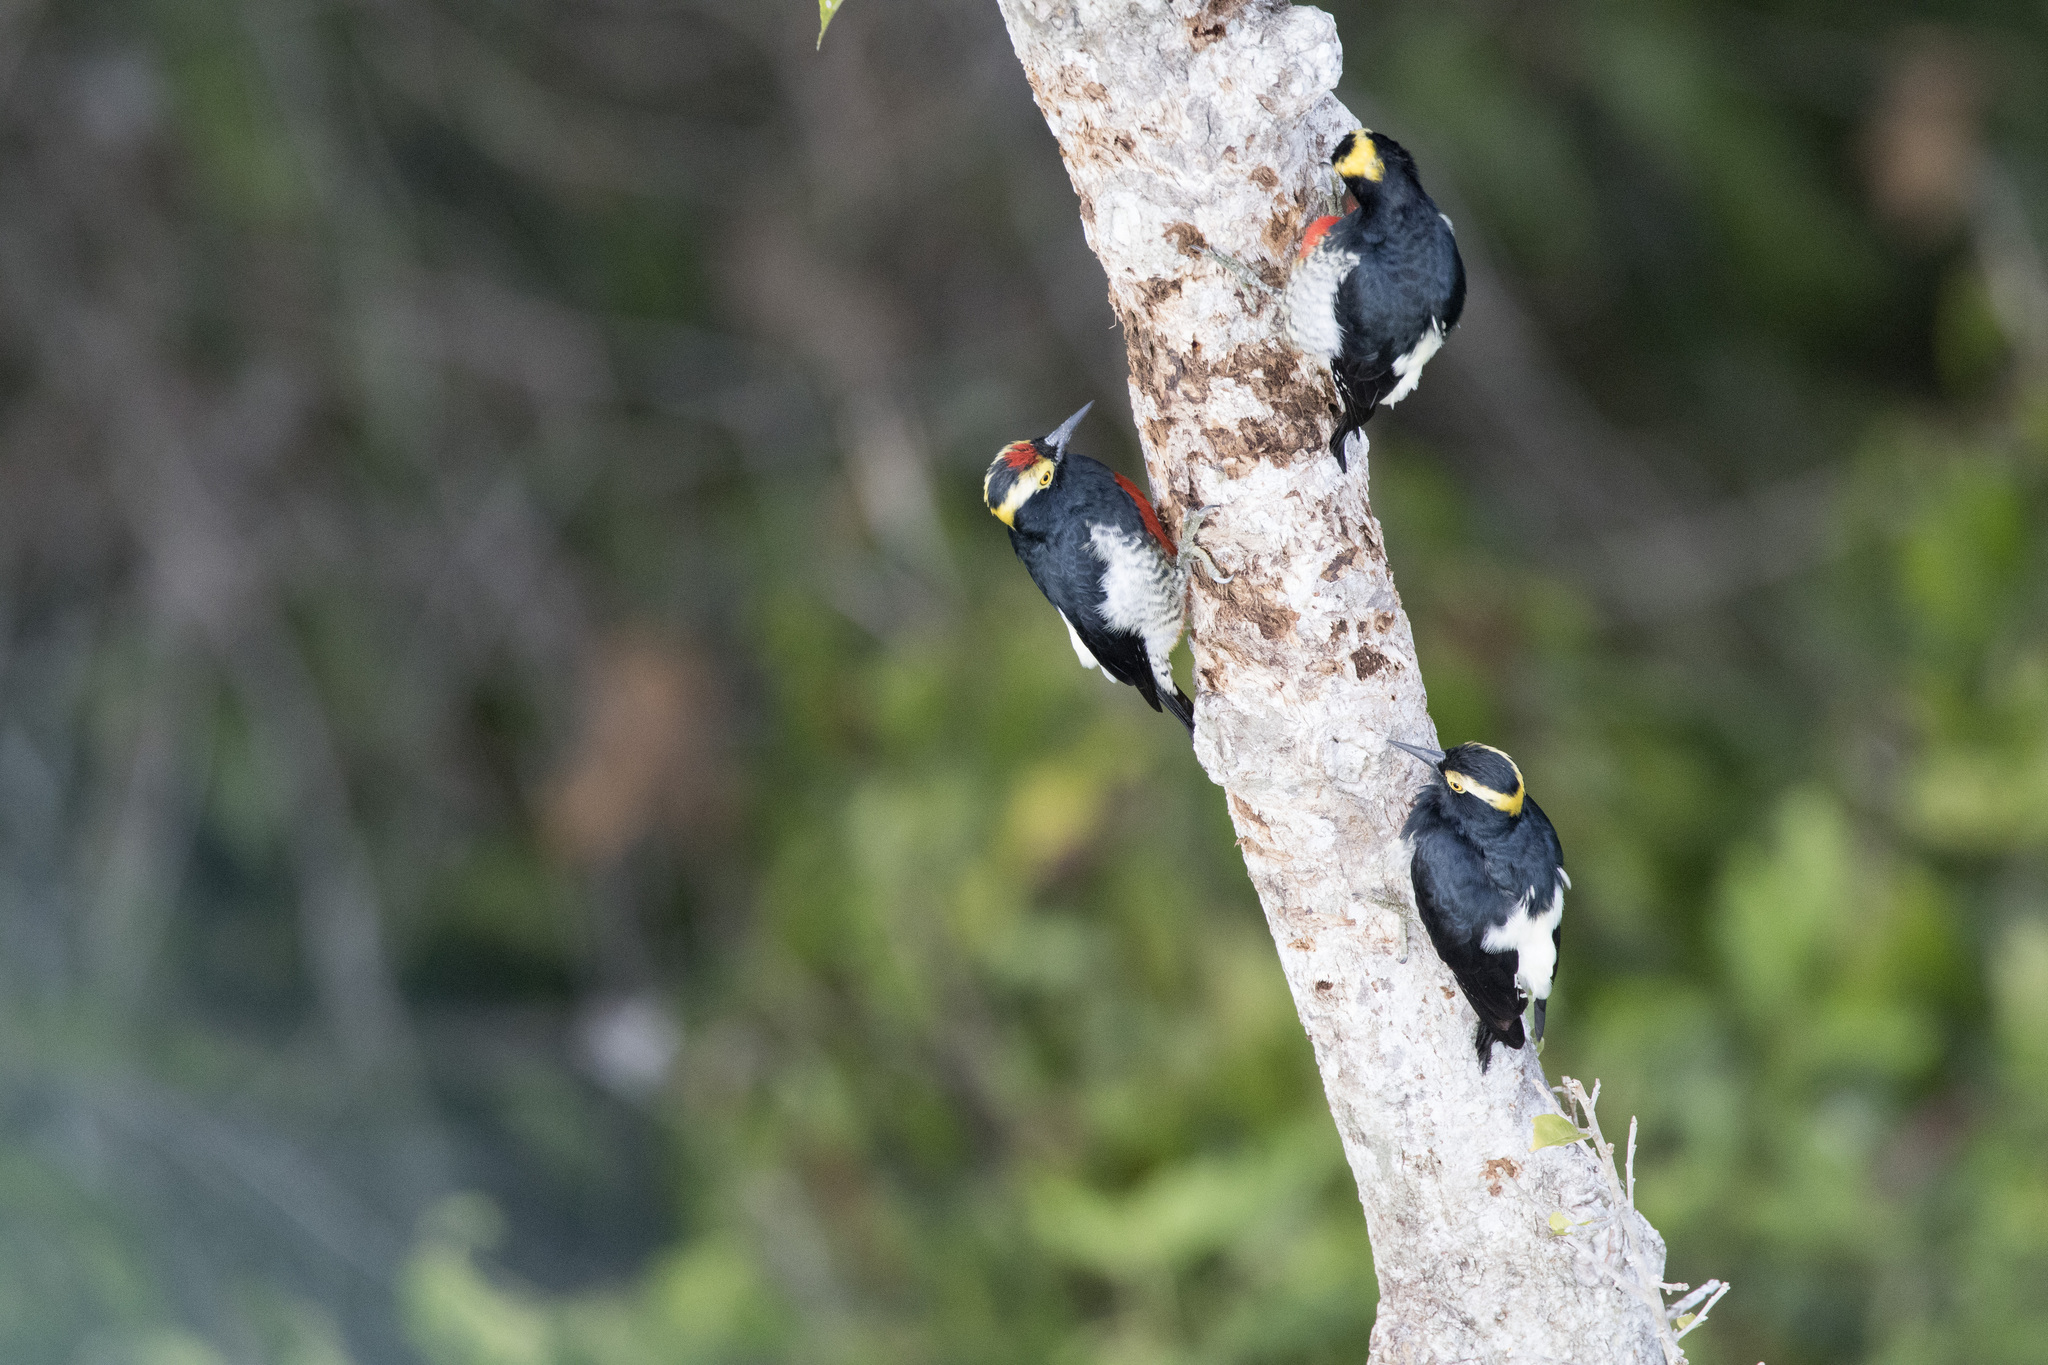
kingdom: Animalia
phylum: Chordata
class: Aves
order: Piciformes
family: Picidae
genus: Melanerpes
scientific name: Melanerpes cruentatus
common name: Yellow-tufted woodpecker
